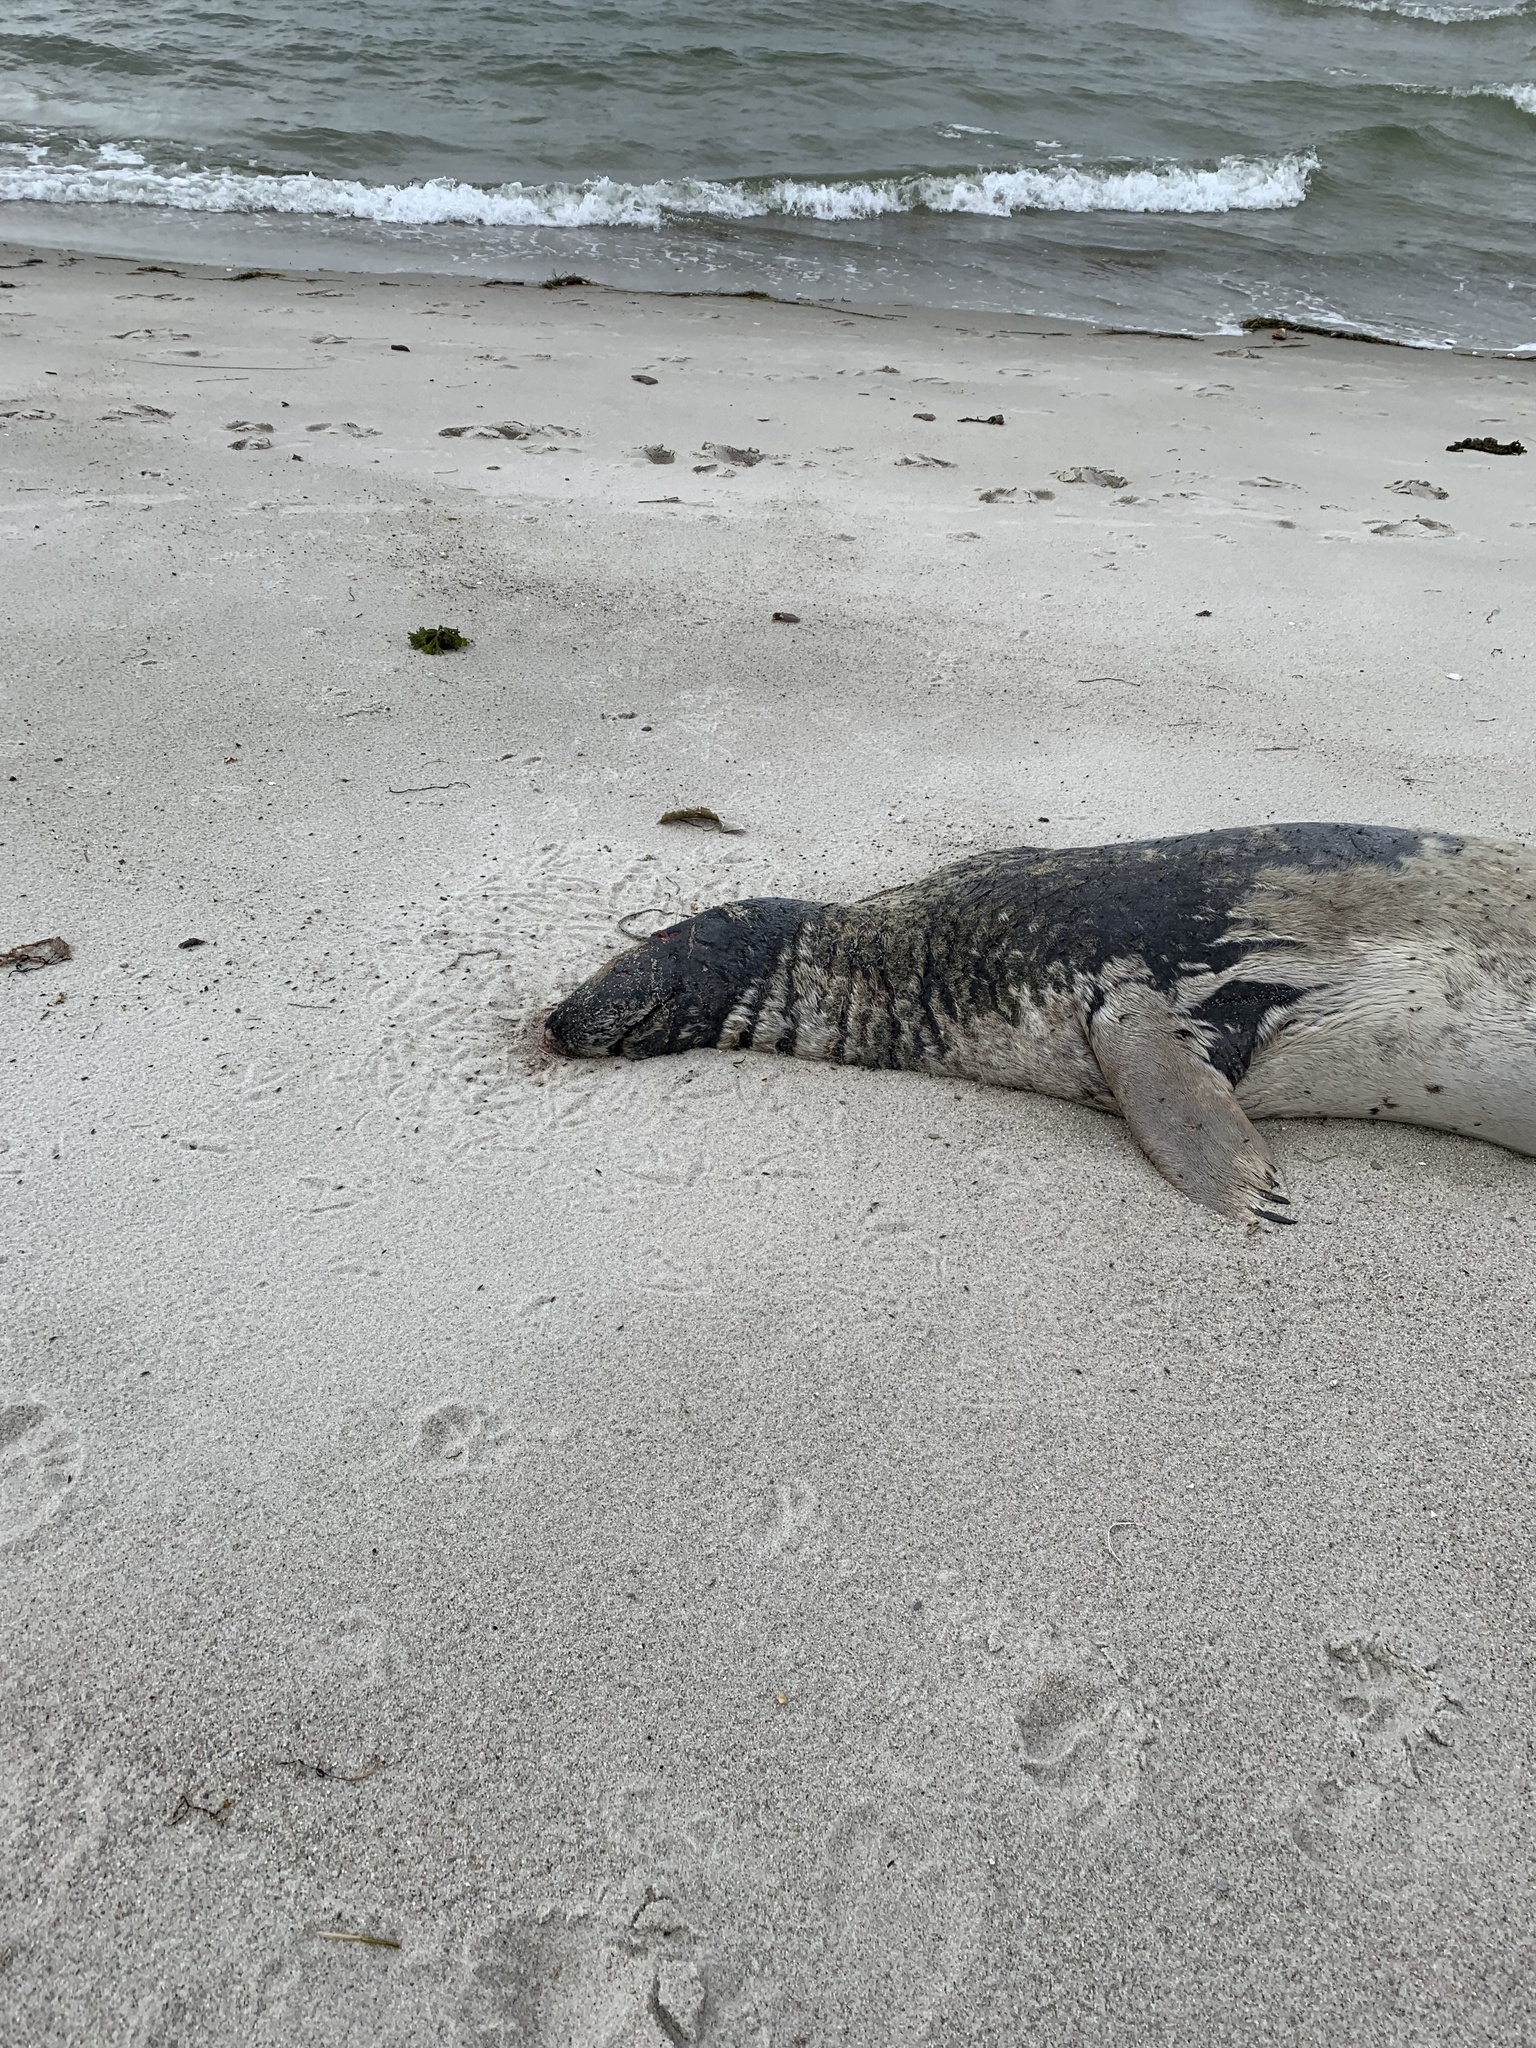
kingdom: Animalia
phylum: Chordata
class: Mammalia
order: Carnivora
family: Phocidae
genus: Halichoerus
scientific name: Halichoerus grypus
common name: Grey seal
